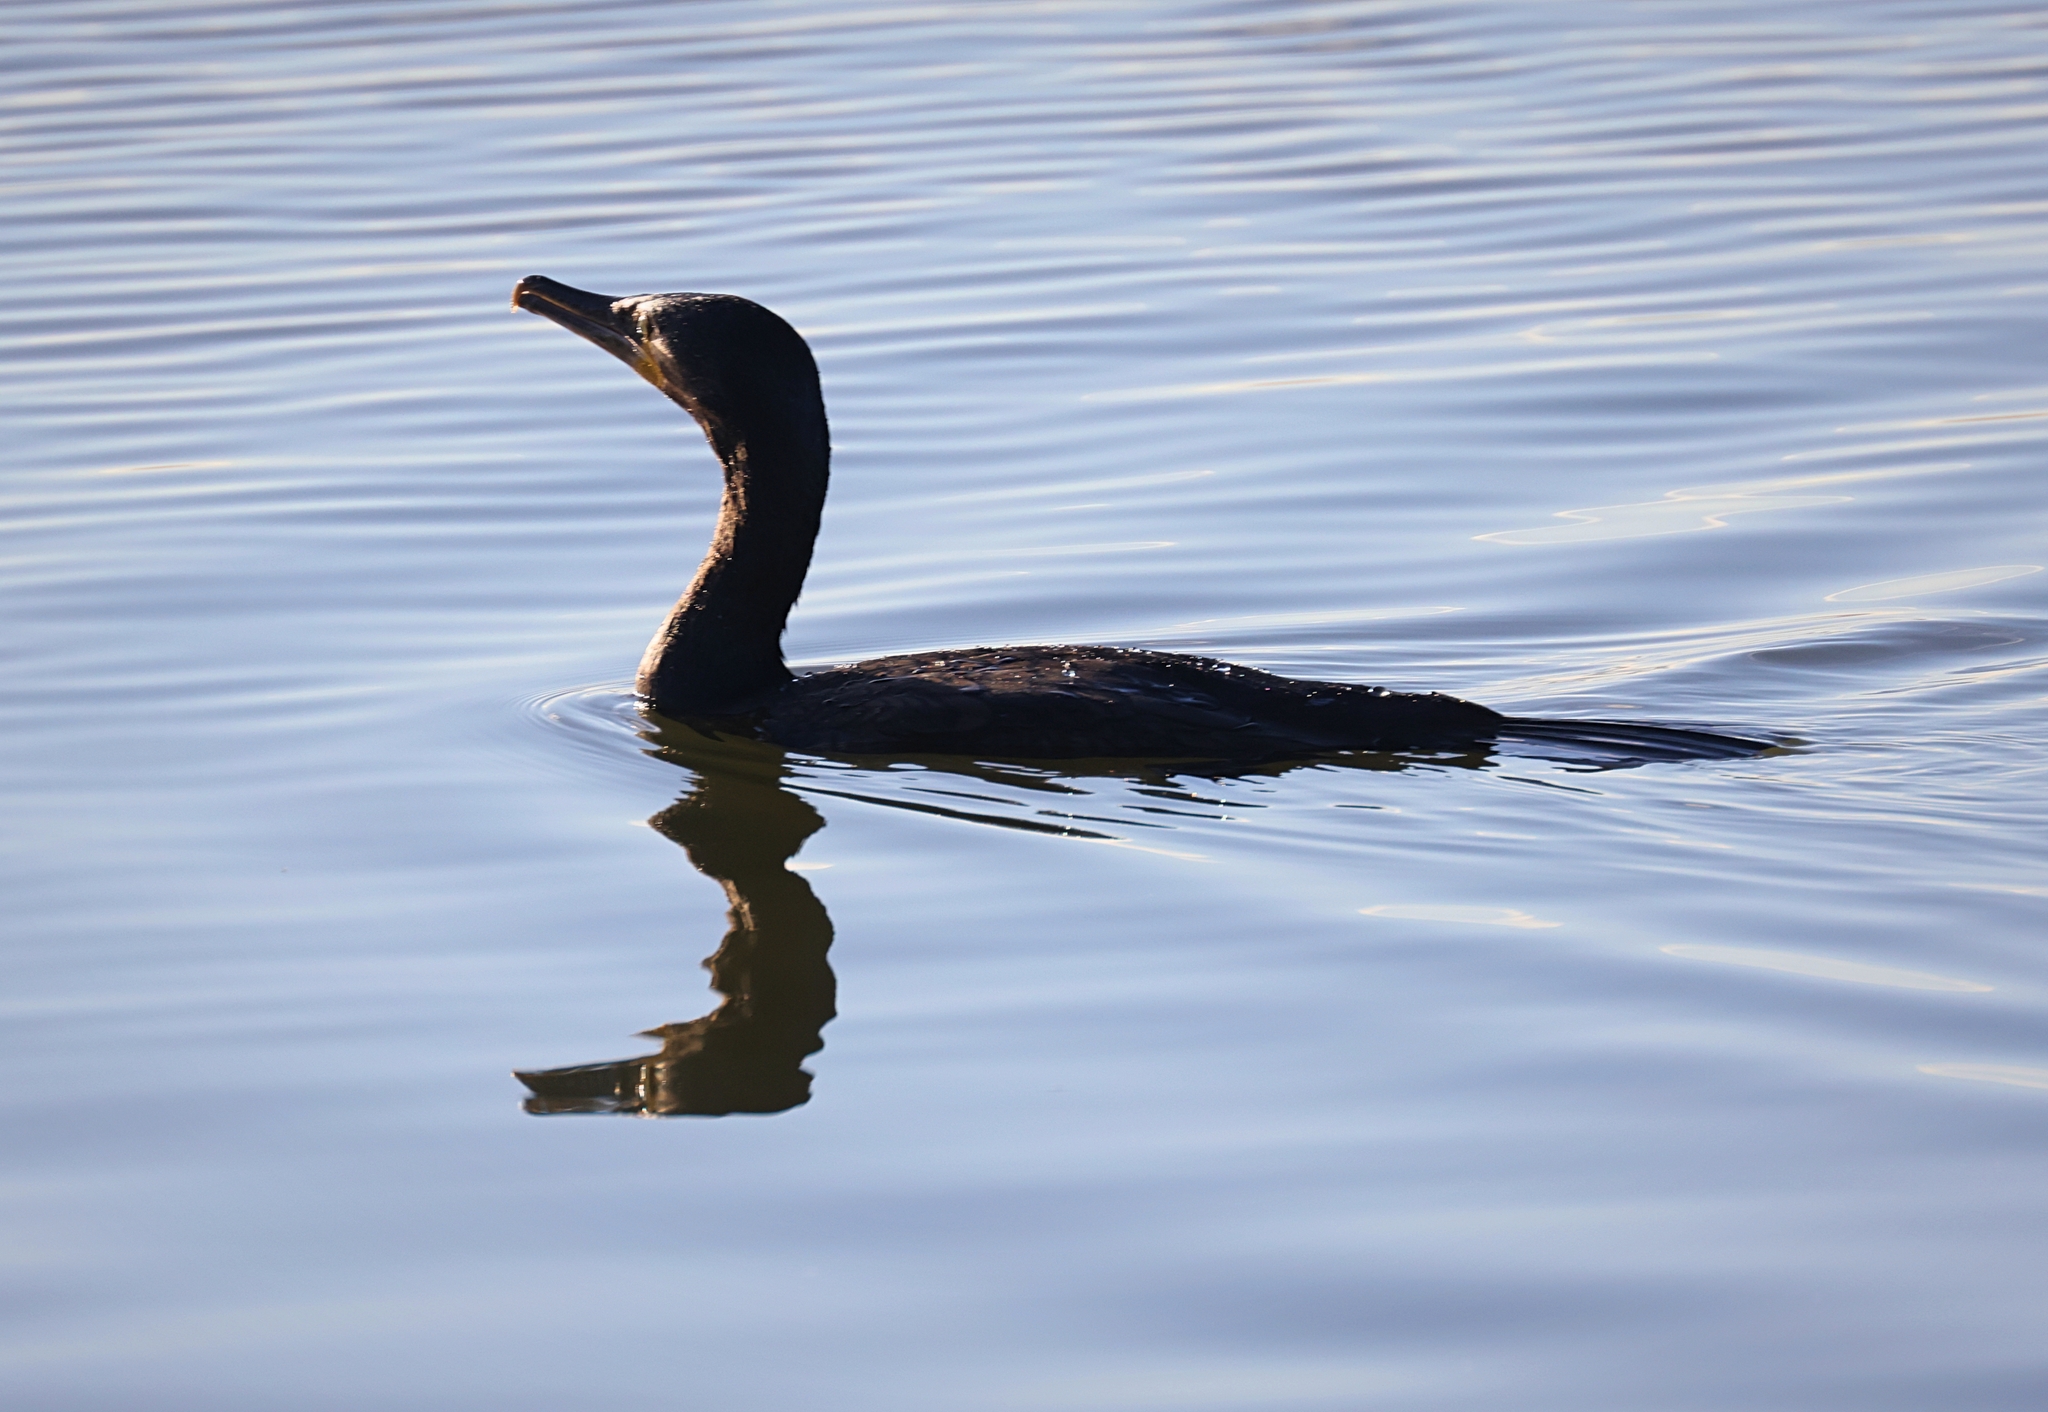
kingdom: Animalia
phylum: Chordata
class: Aves
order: Suliformes
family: Phalacrocoracidae
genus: Phalacrocorax
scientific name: Phalacrocorax carbo
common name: Great cormorant
